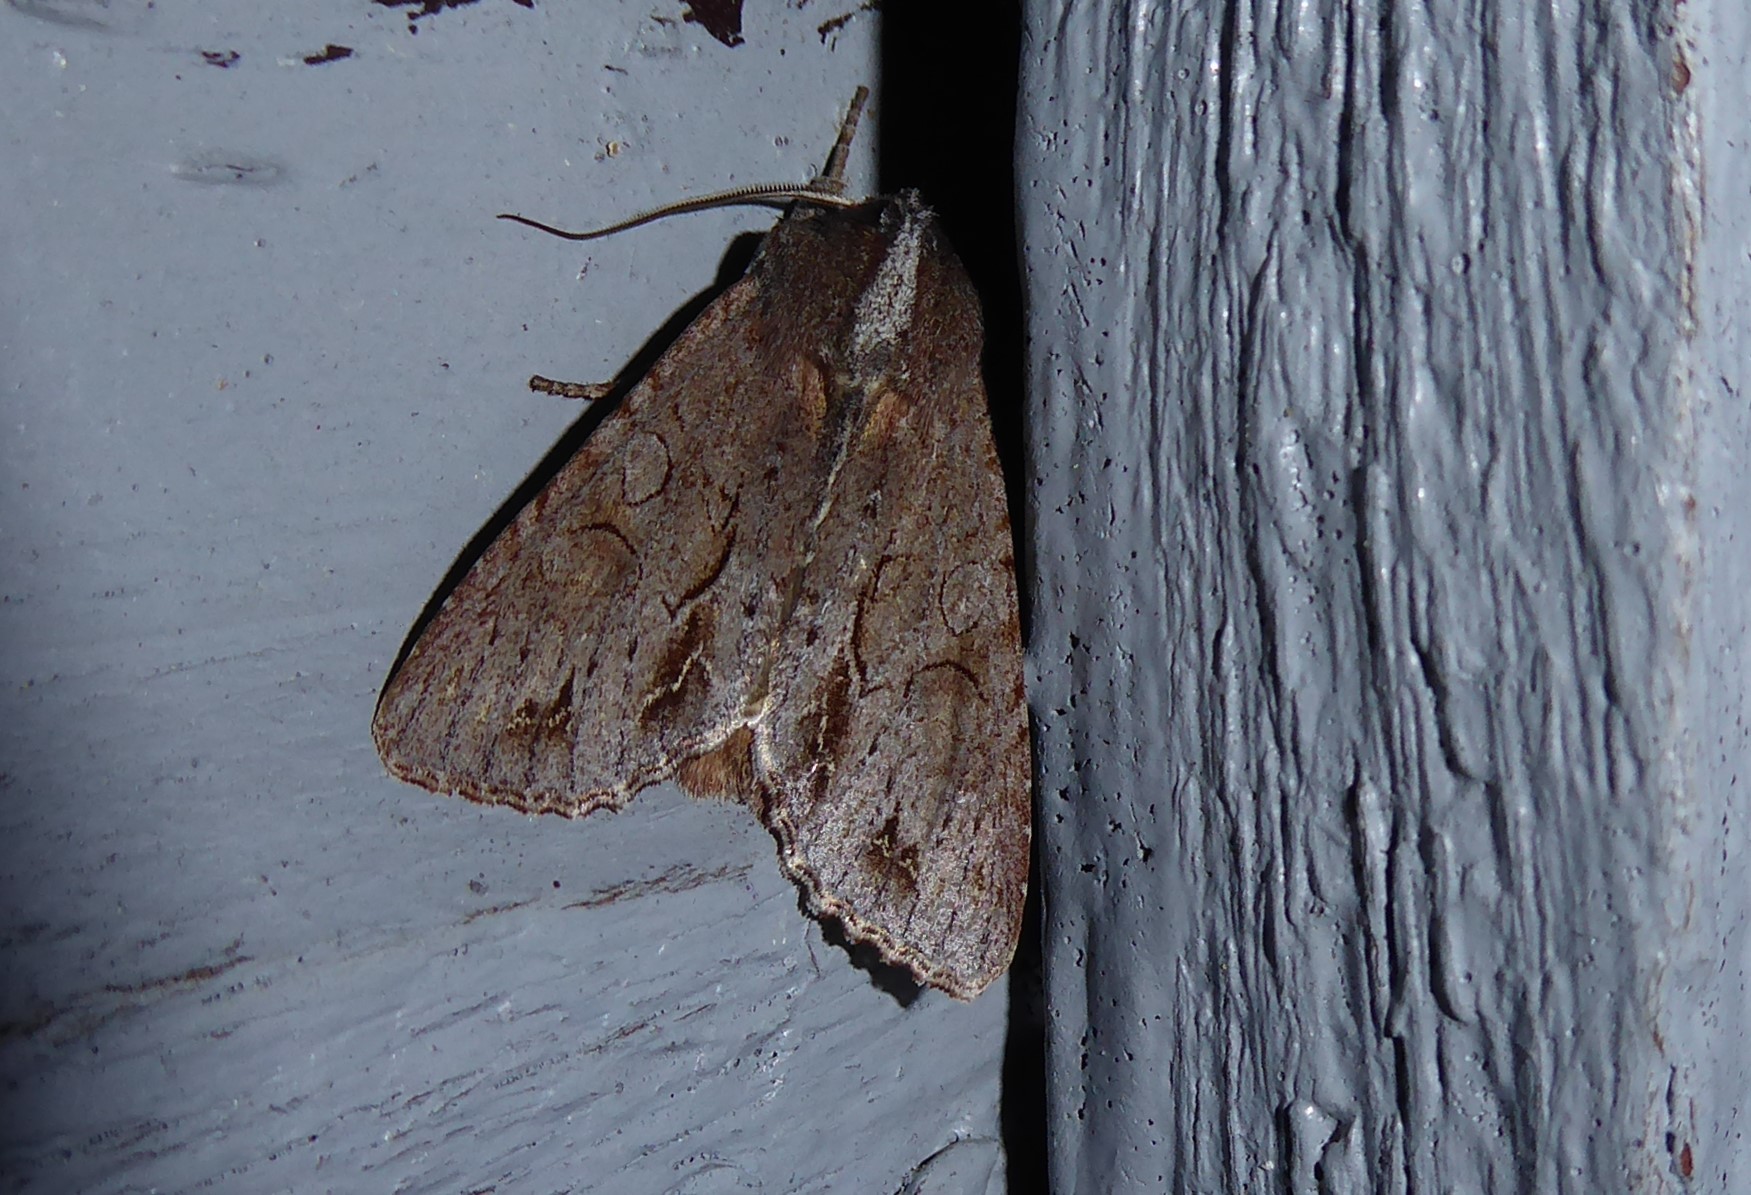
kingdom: Animalia
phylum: Arthropoda
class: Insecta
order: Lepidoptera
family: Noctuidae
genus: Ichneutica
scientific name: Ichneutica
